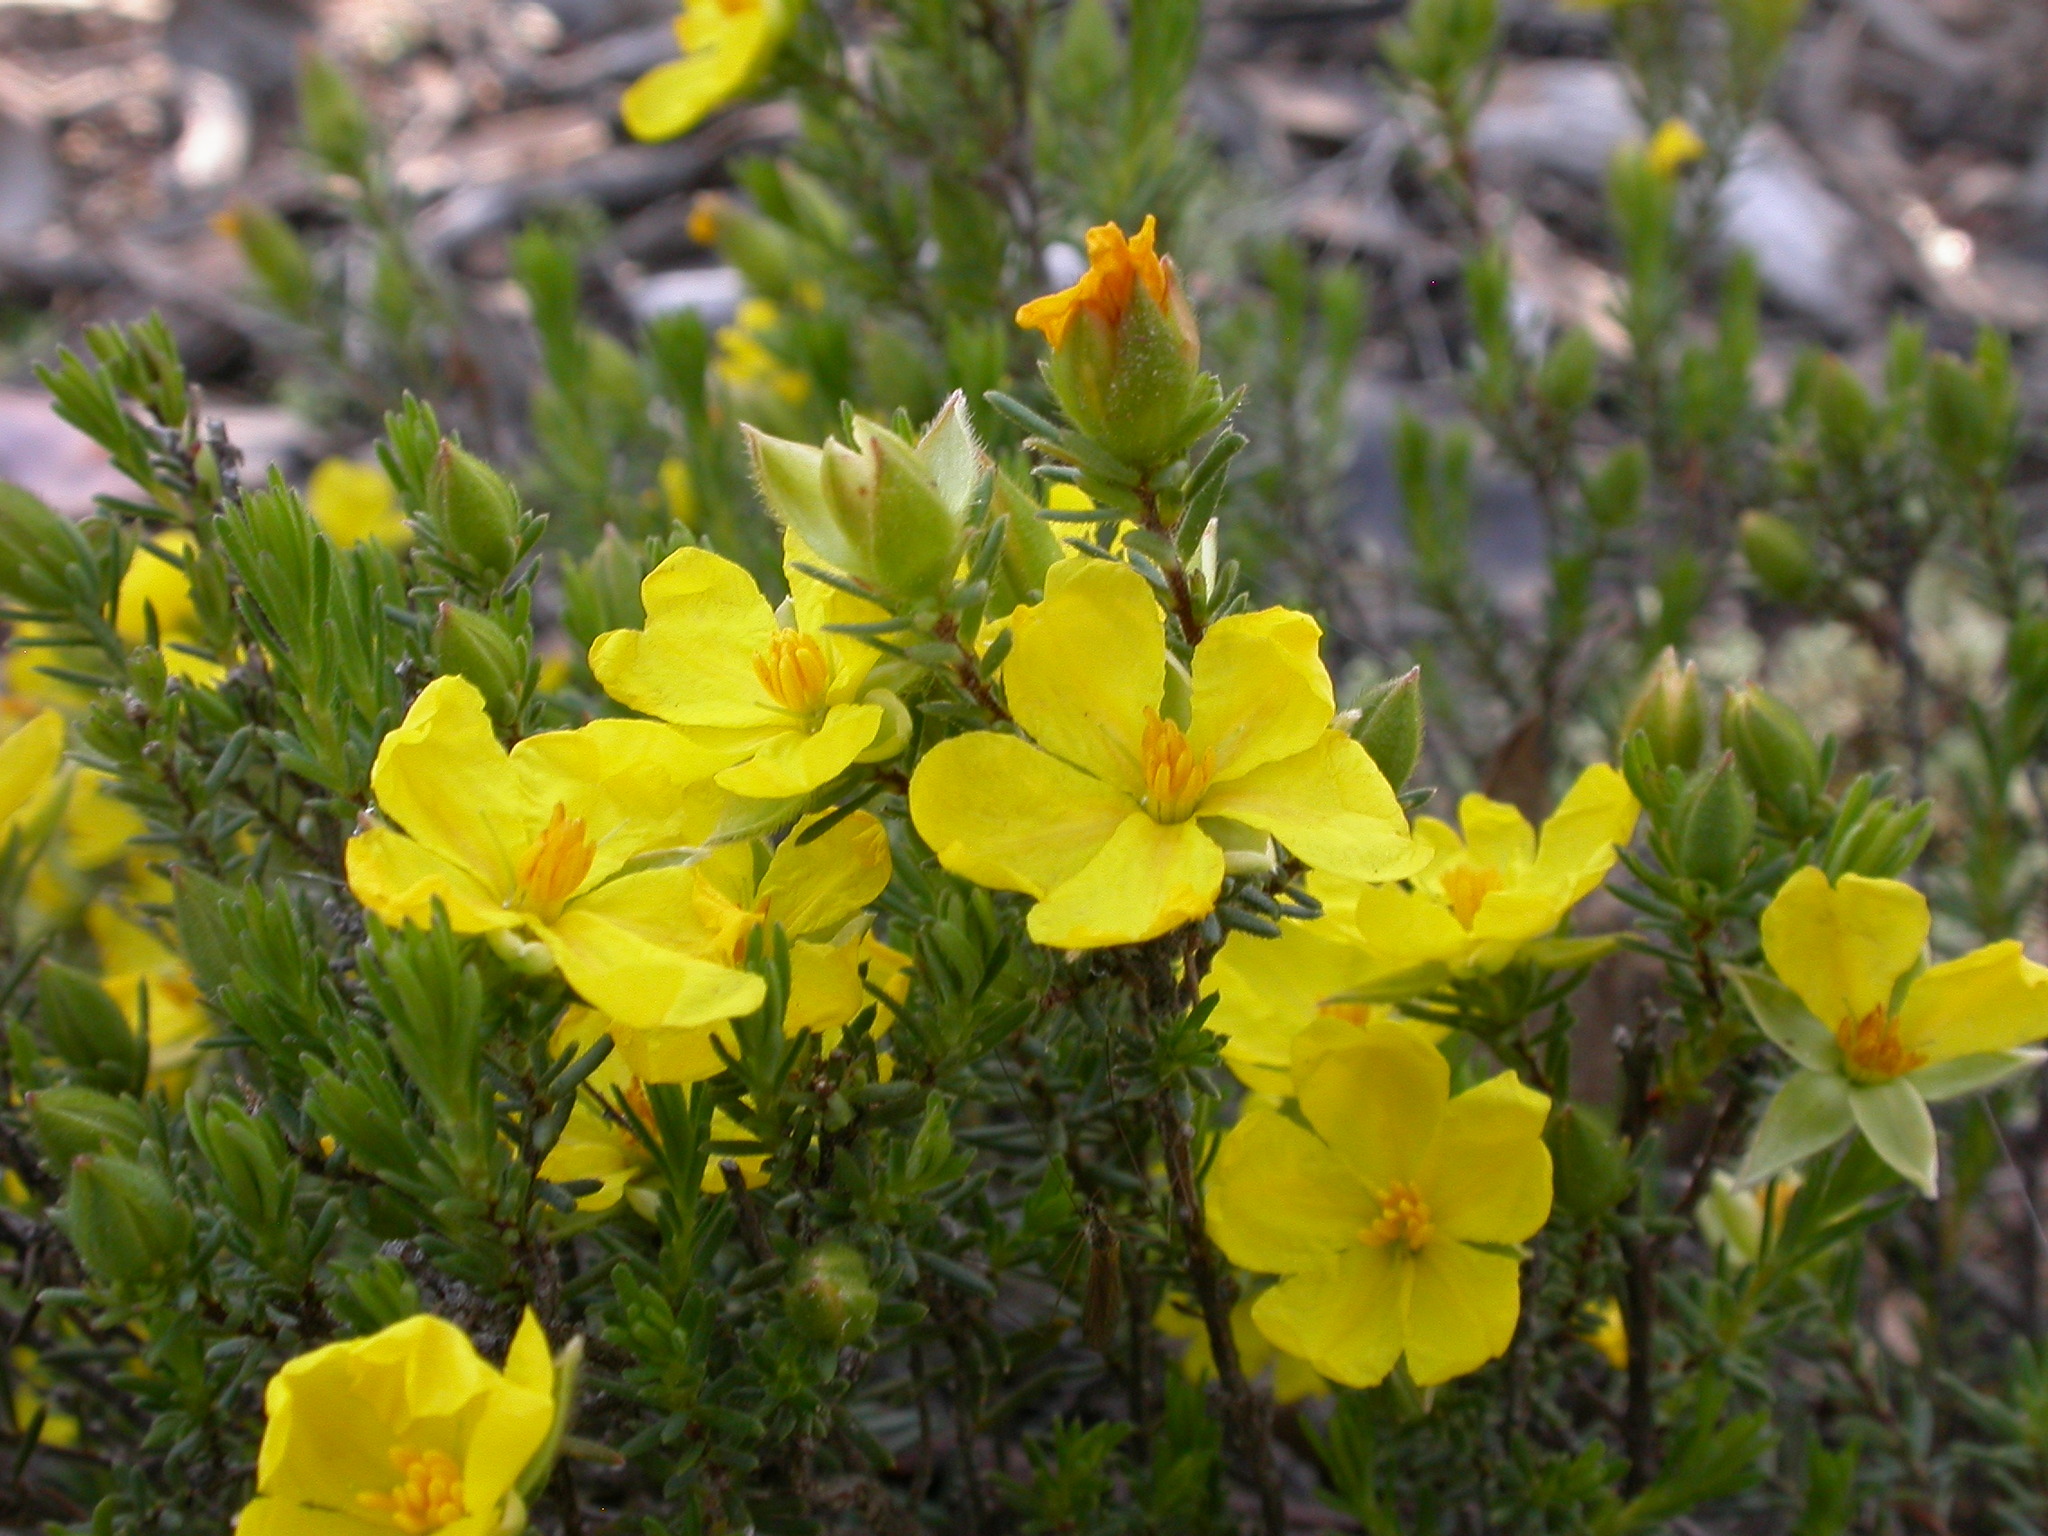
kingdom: Plantae
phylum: Tracheophyta
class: Magnoliopsida
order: Dilleniales
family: Dilleniaceae
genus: Hibbertia
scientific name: Hibbertia calycina
